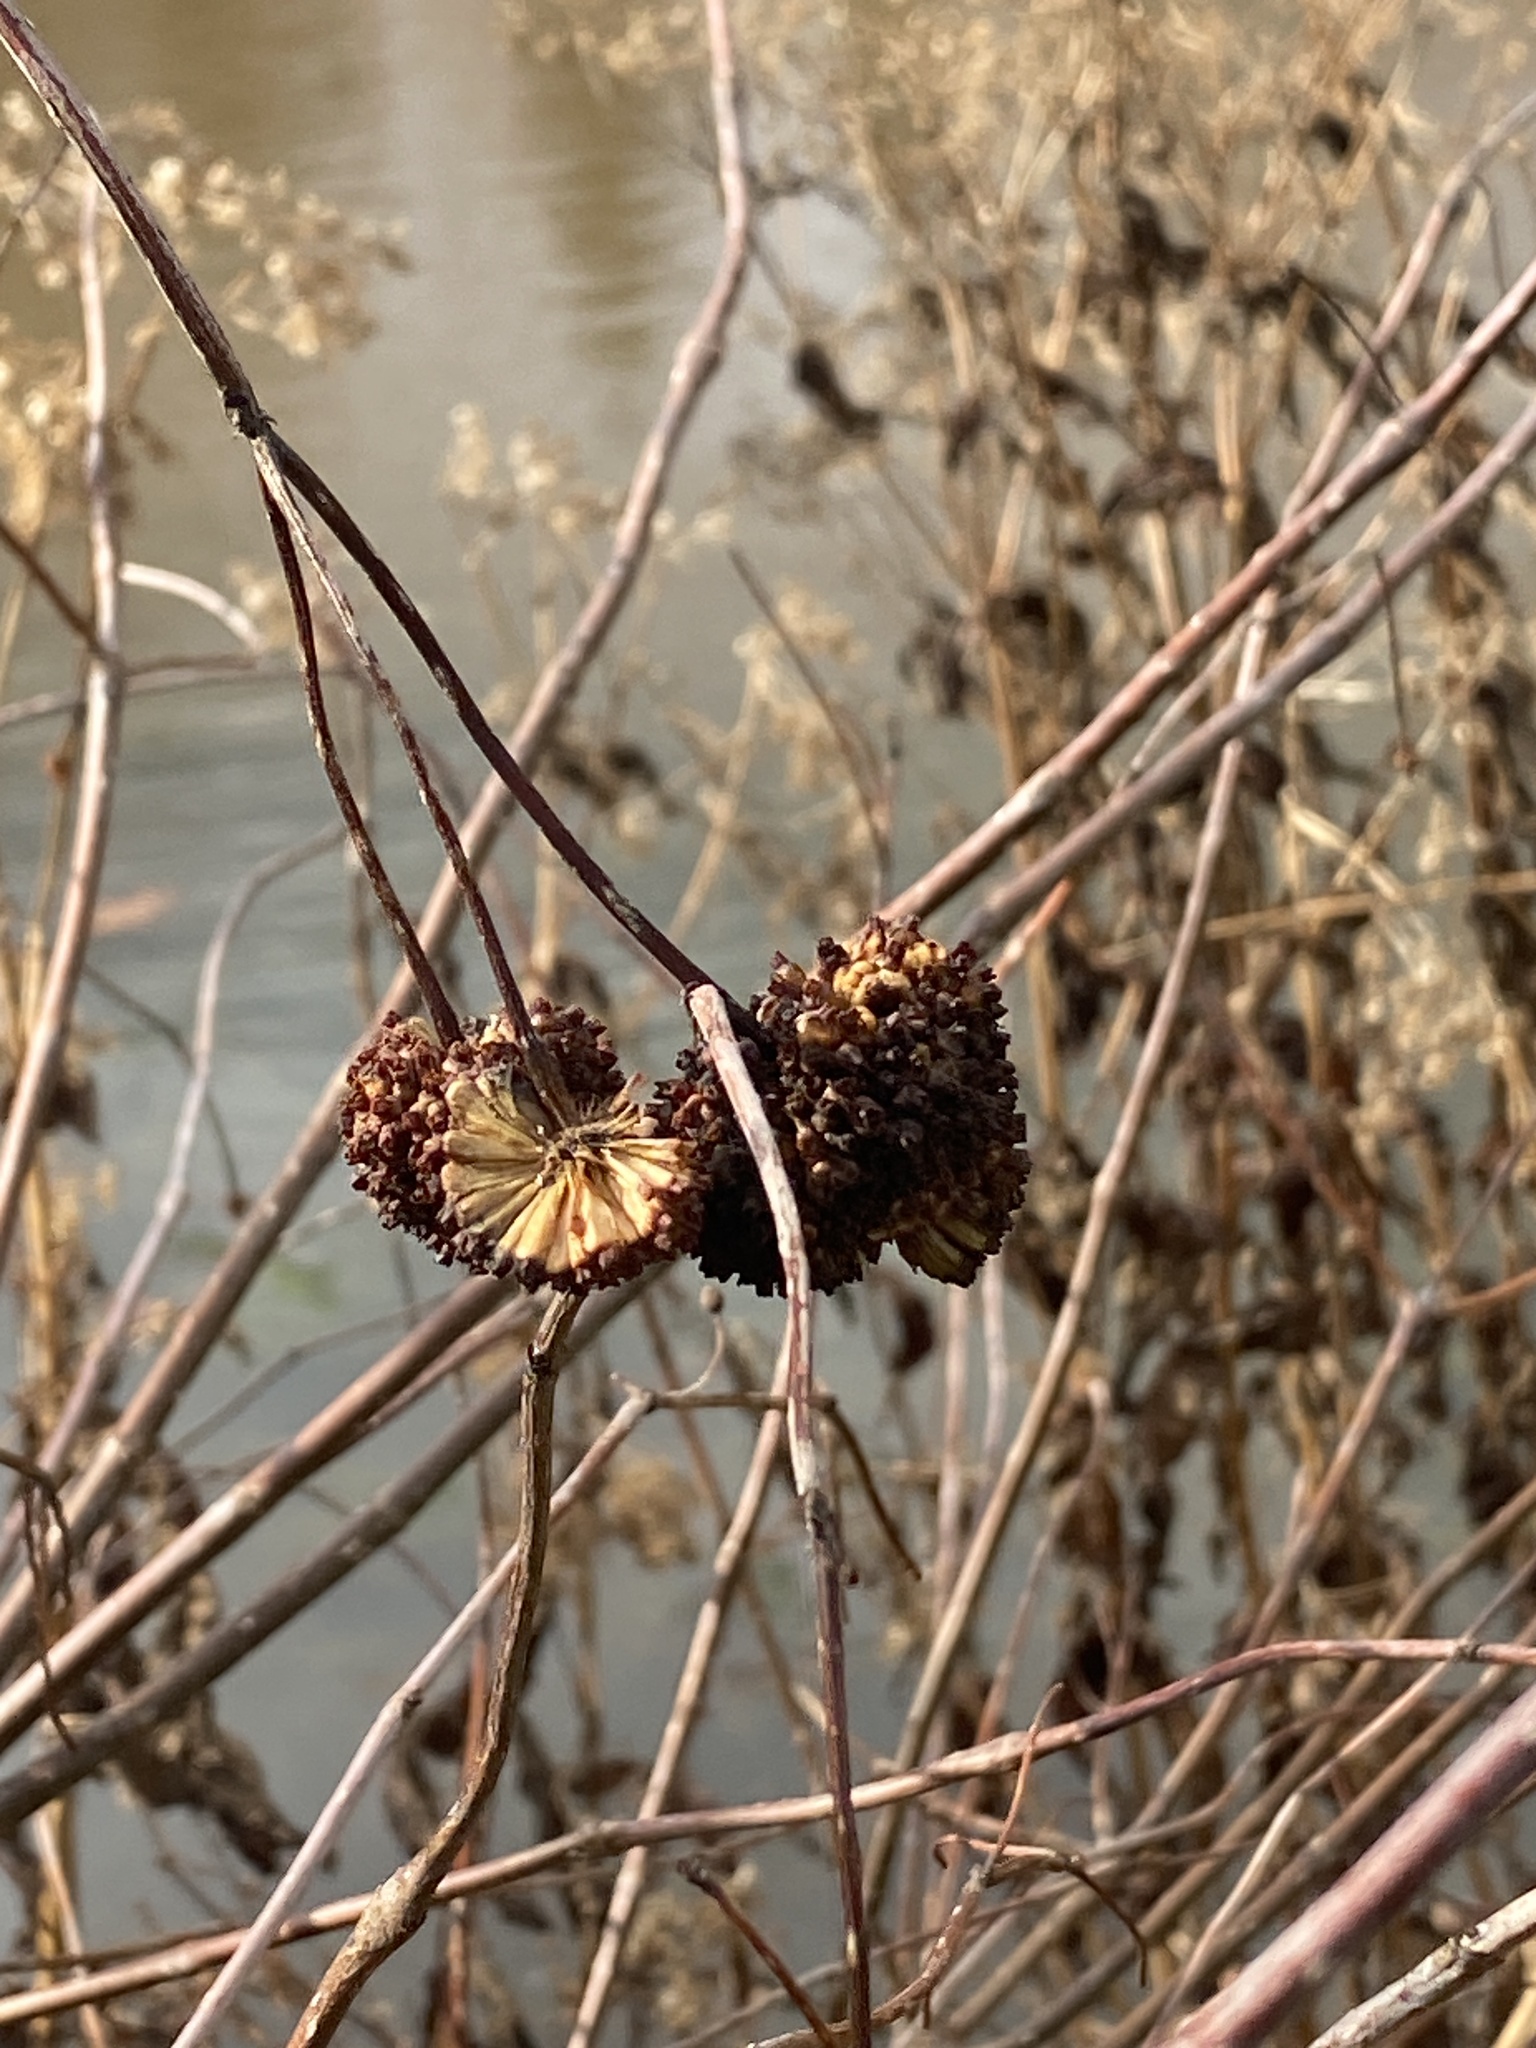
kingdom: Plantae
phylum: Tracheophyta
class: Magnoliopsida
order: Gentianales
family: Rubiaceae
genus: Cephalanthus
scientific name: Cephalanthus occidentalis
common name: Button-willow
